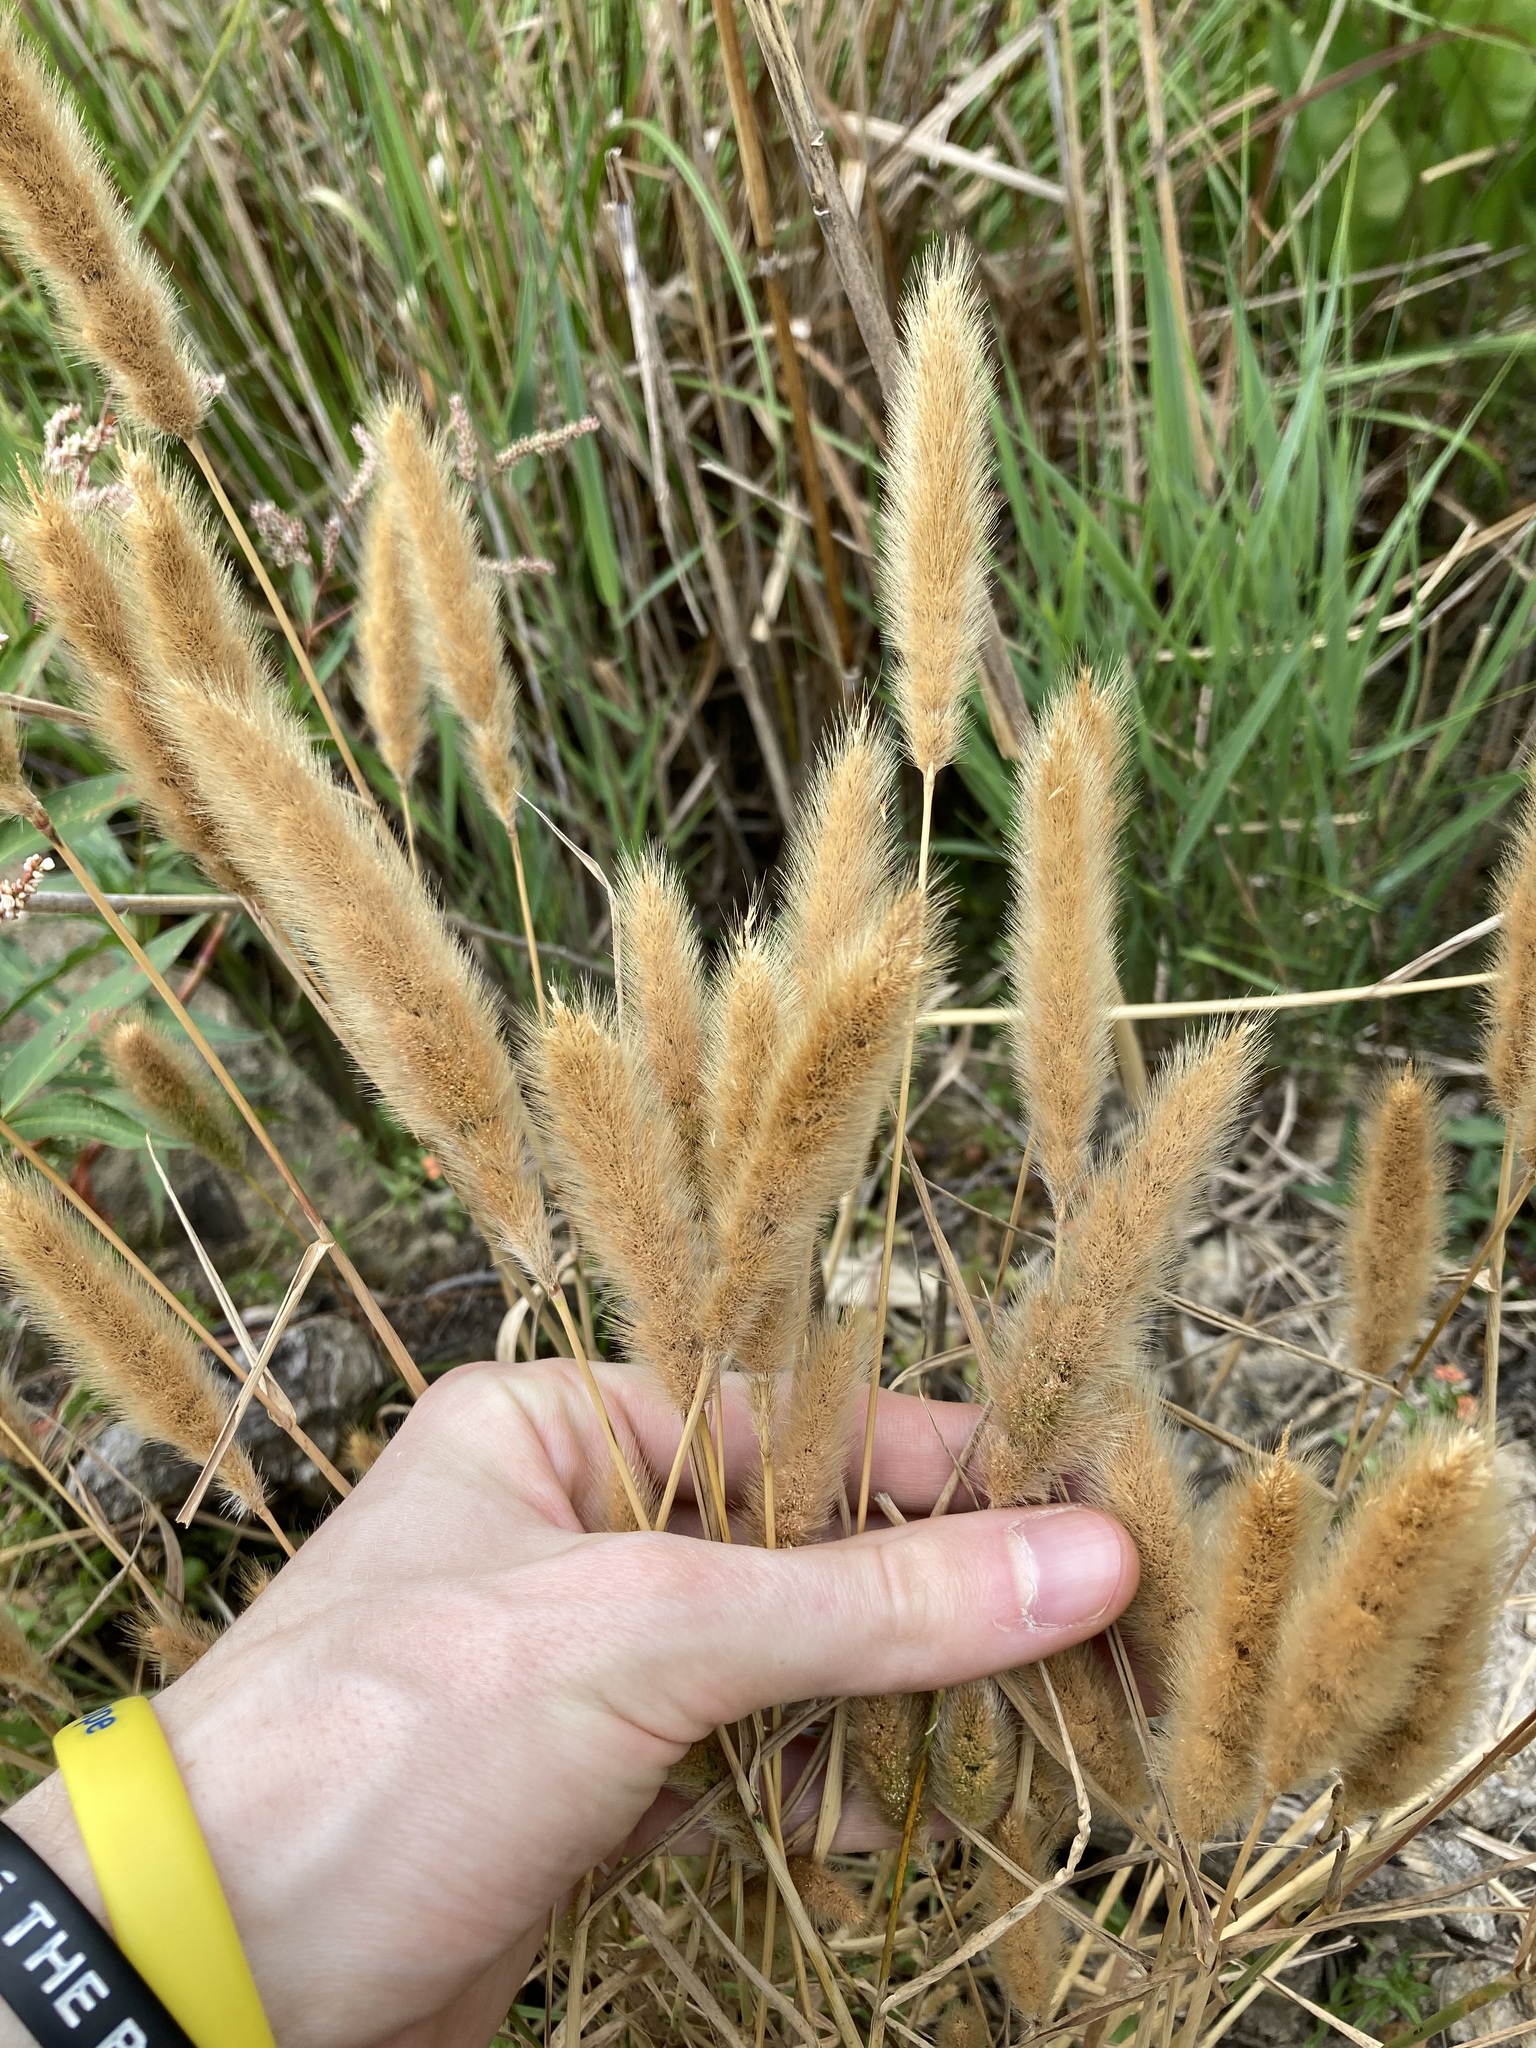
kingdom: Plantae
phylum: Tracheophyta
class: Liliopsida
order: Poales
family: Poaceae
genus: Polypogon
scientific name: Polypogon monspeliensis
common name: Annual rabbitsfoot grass
